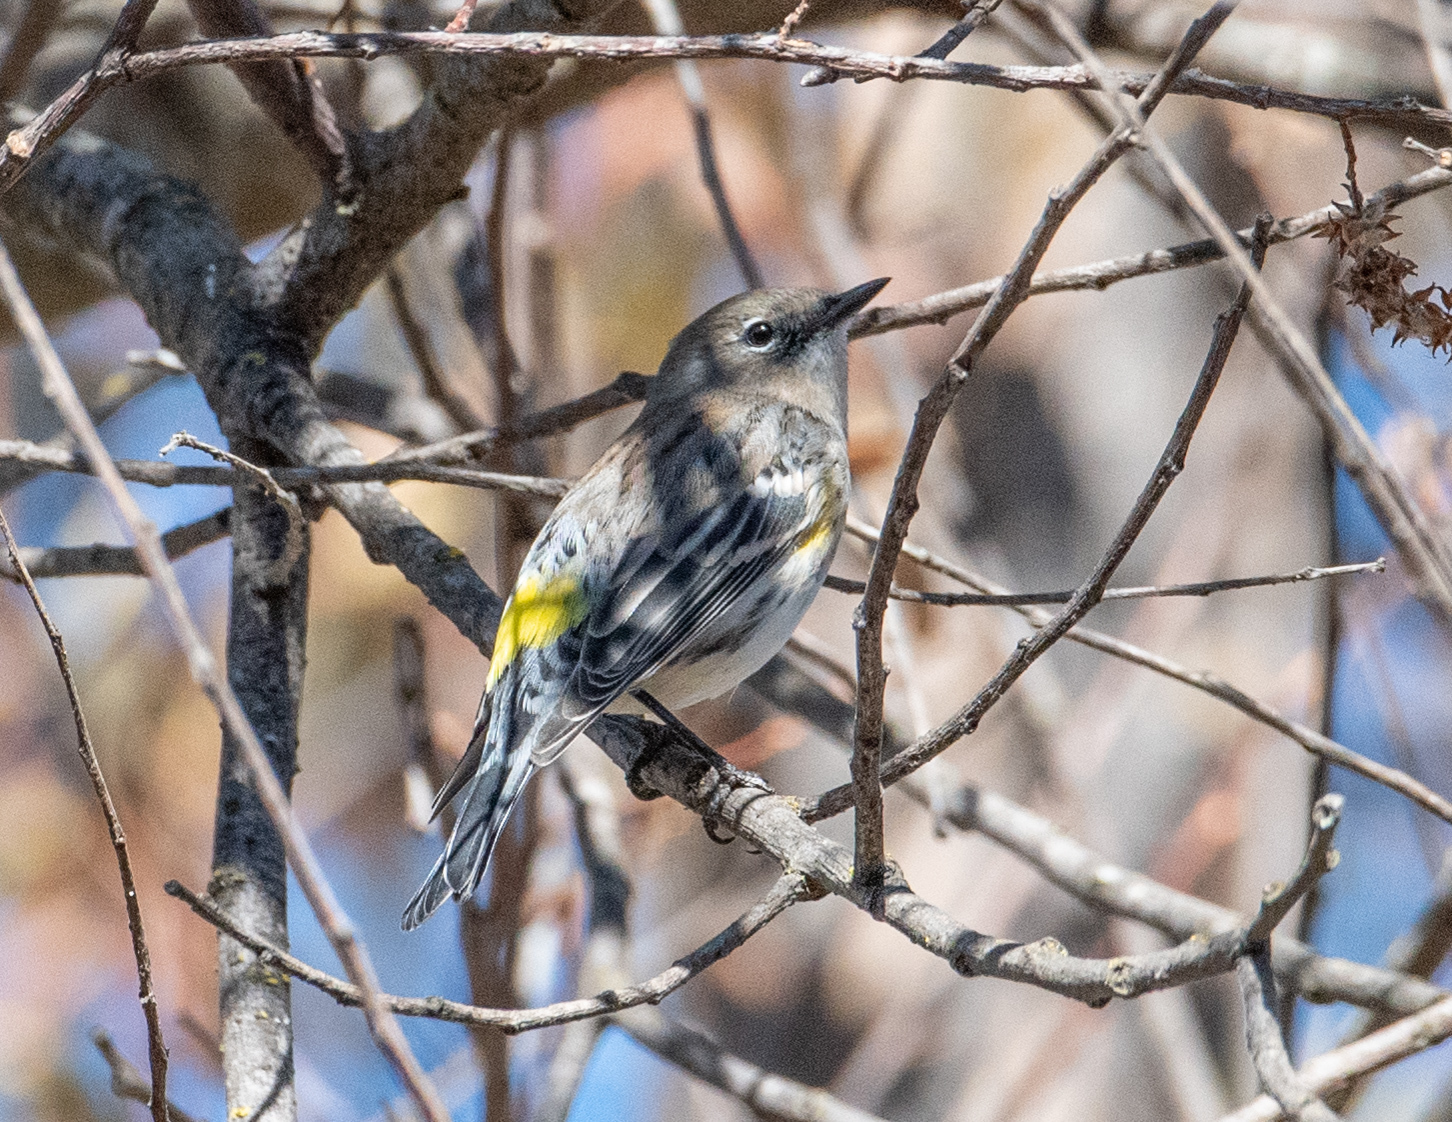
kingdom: Animalia
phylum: Chordata
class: Aves
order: Passeriformes
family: Parulidae
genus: Setophaga
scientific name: Setophaga coronata
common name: Myrtle warbler
